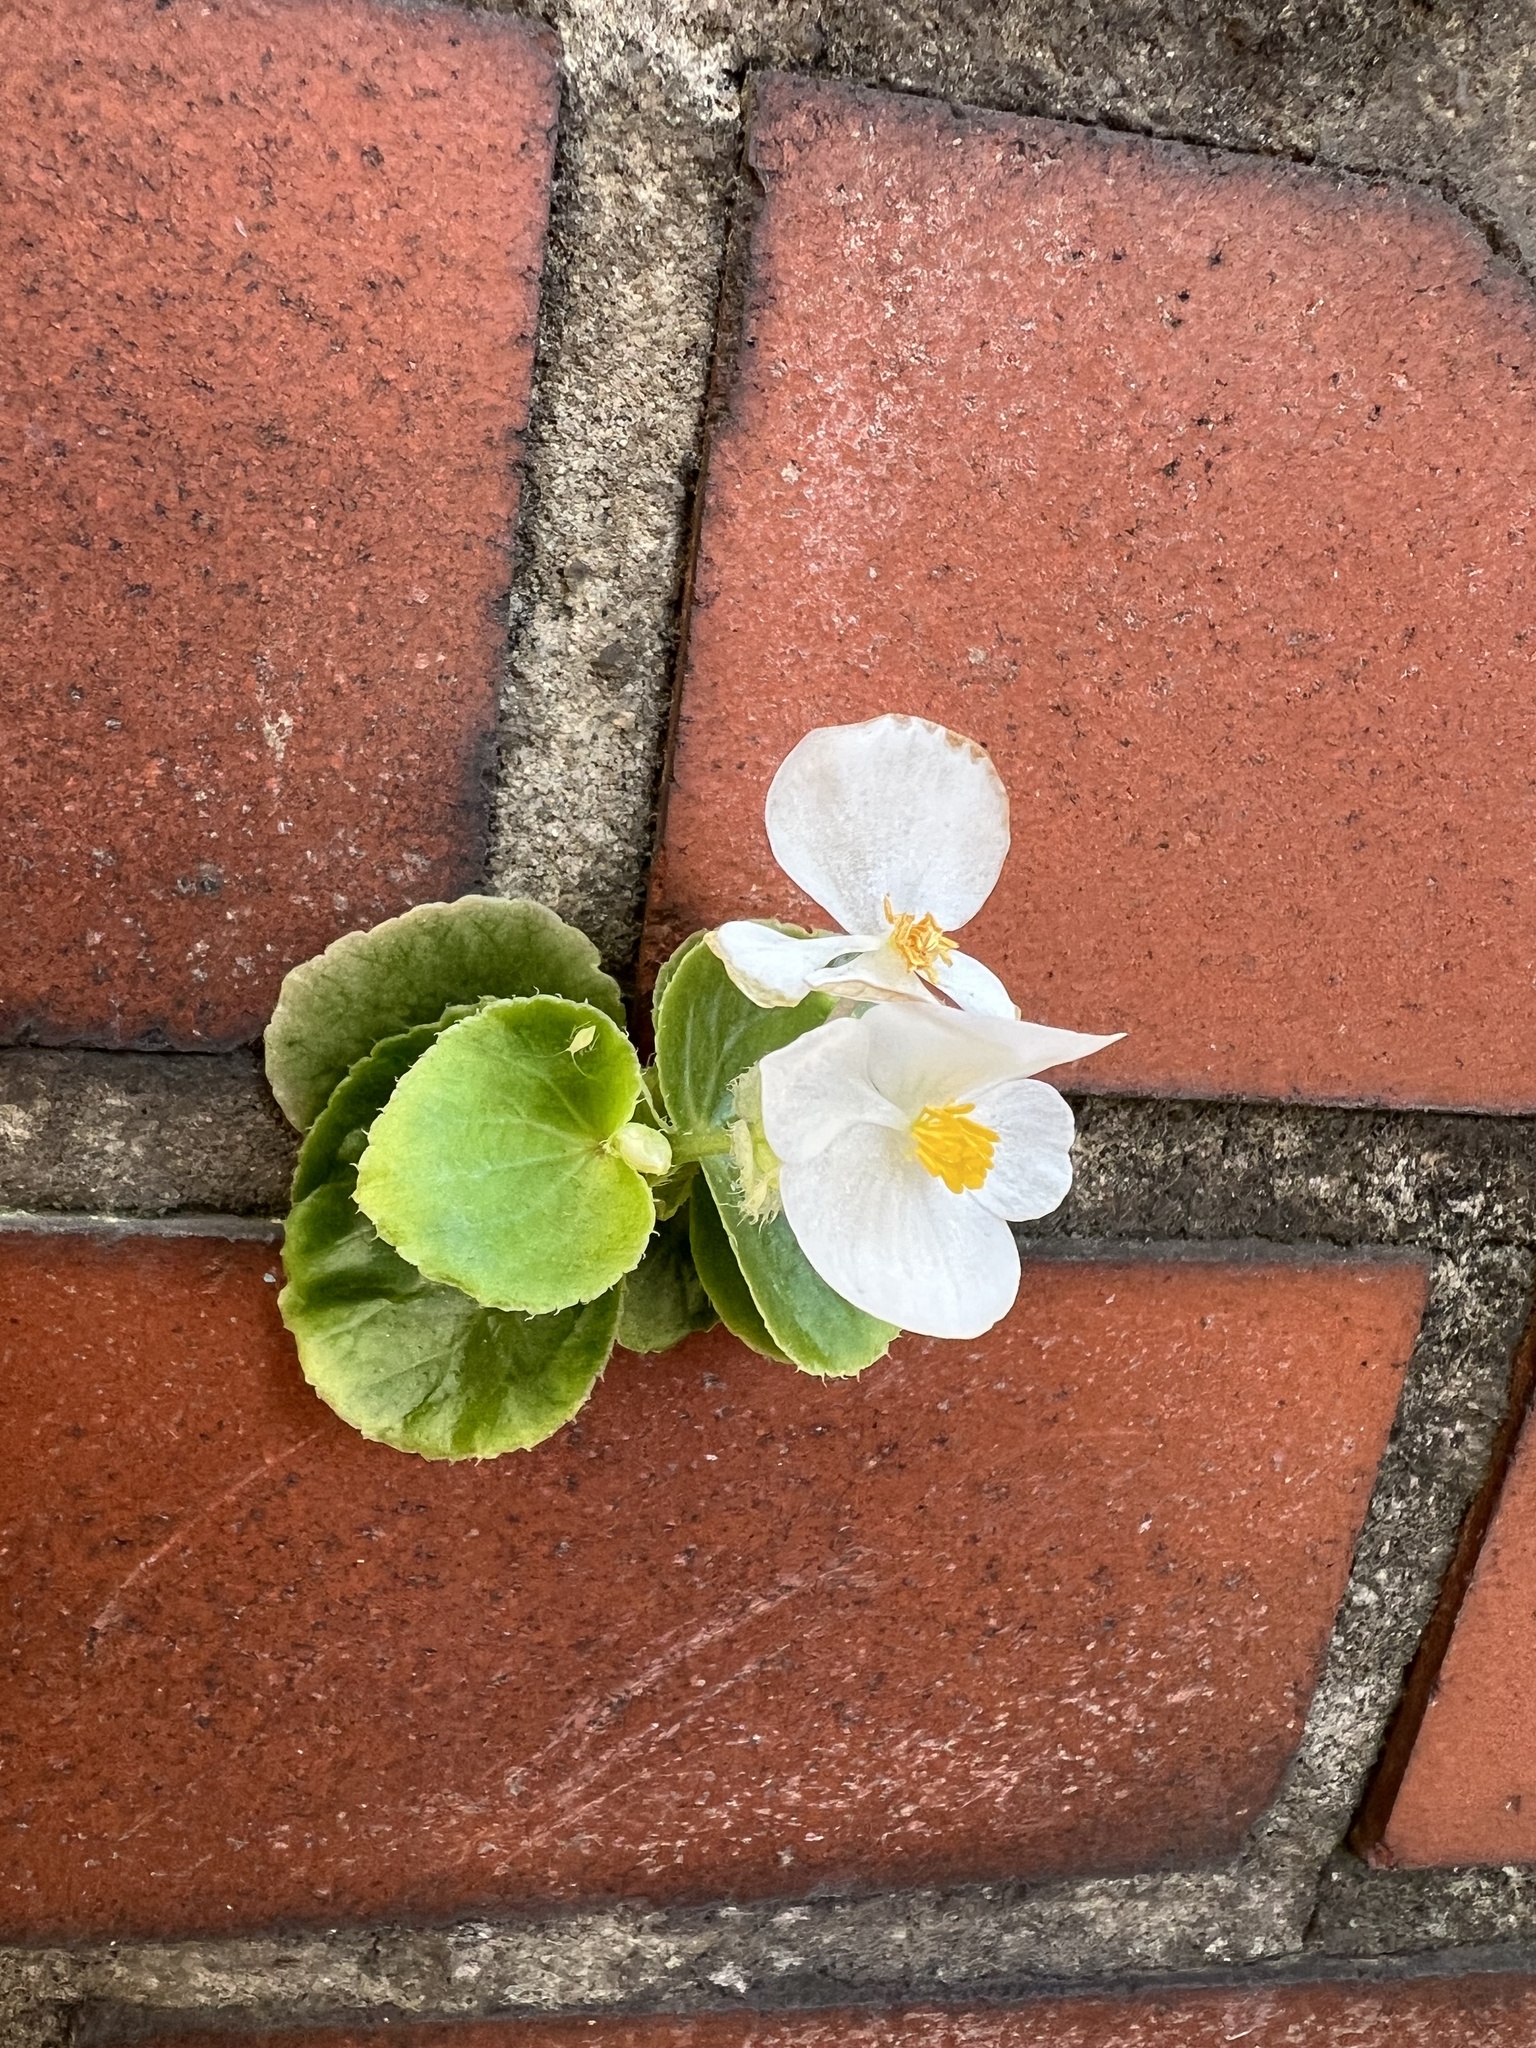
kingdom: Plantae
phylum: Tracheophyta
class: Magnoliopsida
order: Cucurbitales
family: Begoniaceae
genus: Begonia
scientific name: Begonia semperflorens-cultorum
